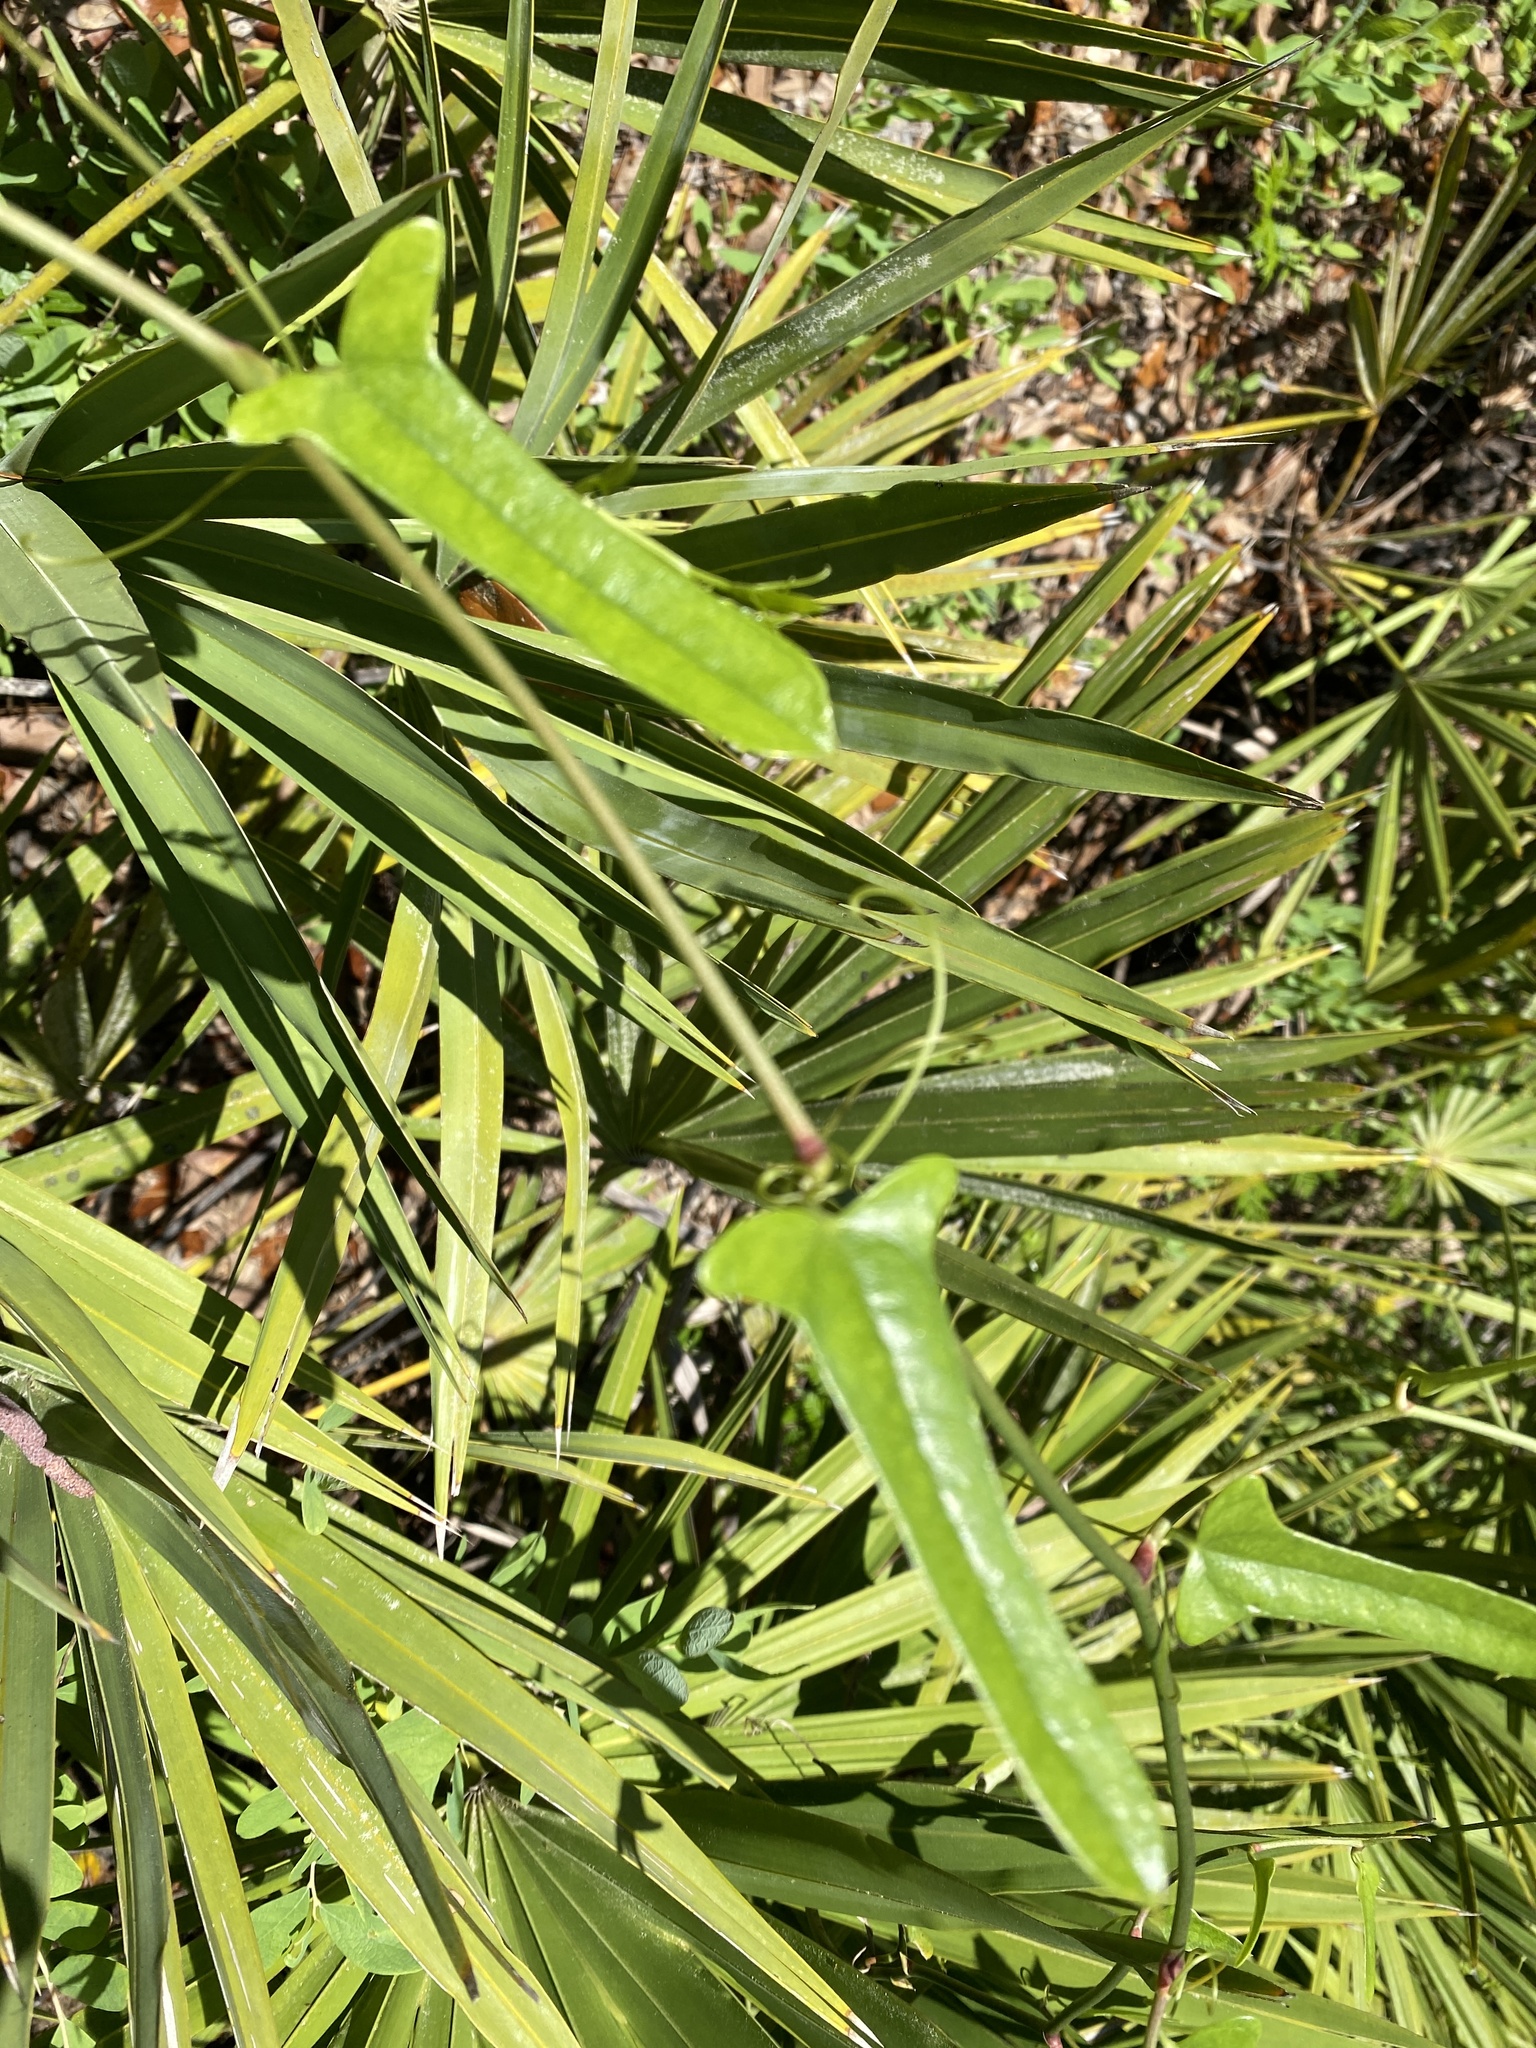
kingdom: Plantae
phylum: Tracheophyta
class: Liliopsida
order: Liliales
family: Smilacaceae
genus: Smilax
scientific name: Smilax auriculata
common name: Wild bamboo
